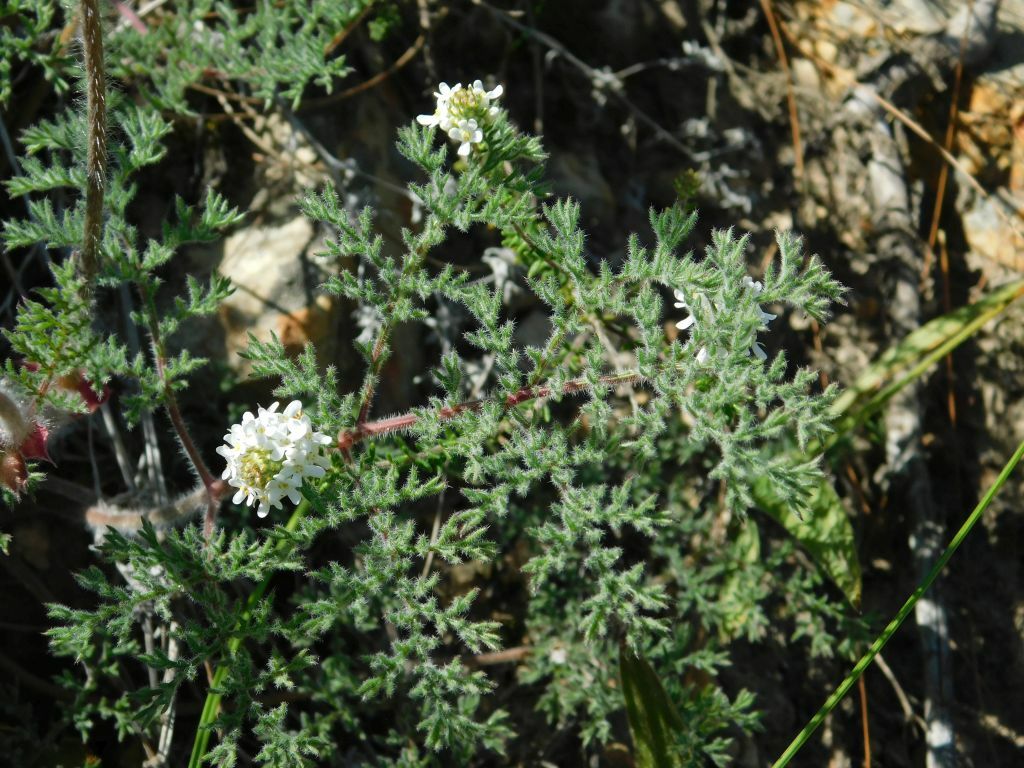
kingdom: Plantae
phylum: Tracheophyta
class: Magnoliopsida
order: Geraniales
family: Geraniaceae
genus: Pelargonium
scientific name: Pelargonium triste
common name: Night-scent pelargonium
